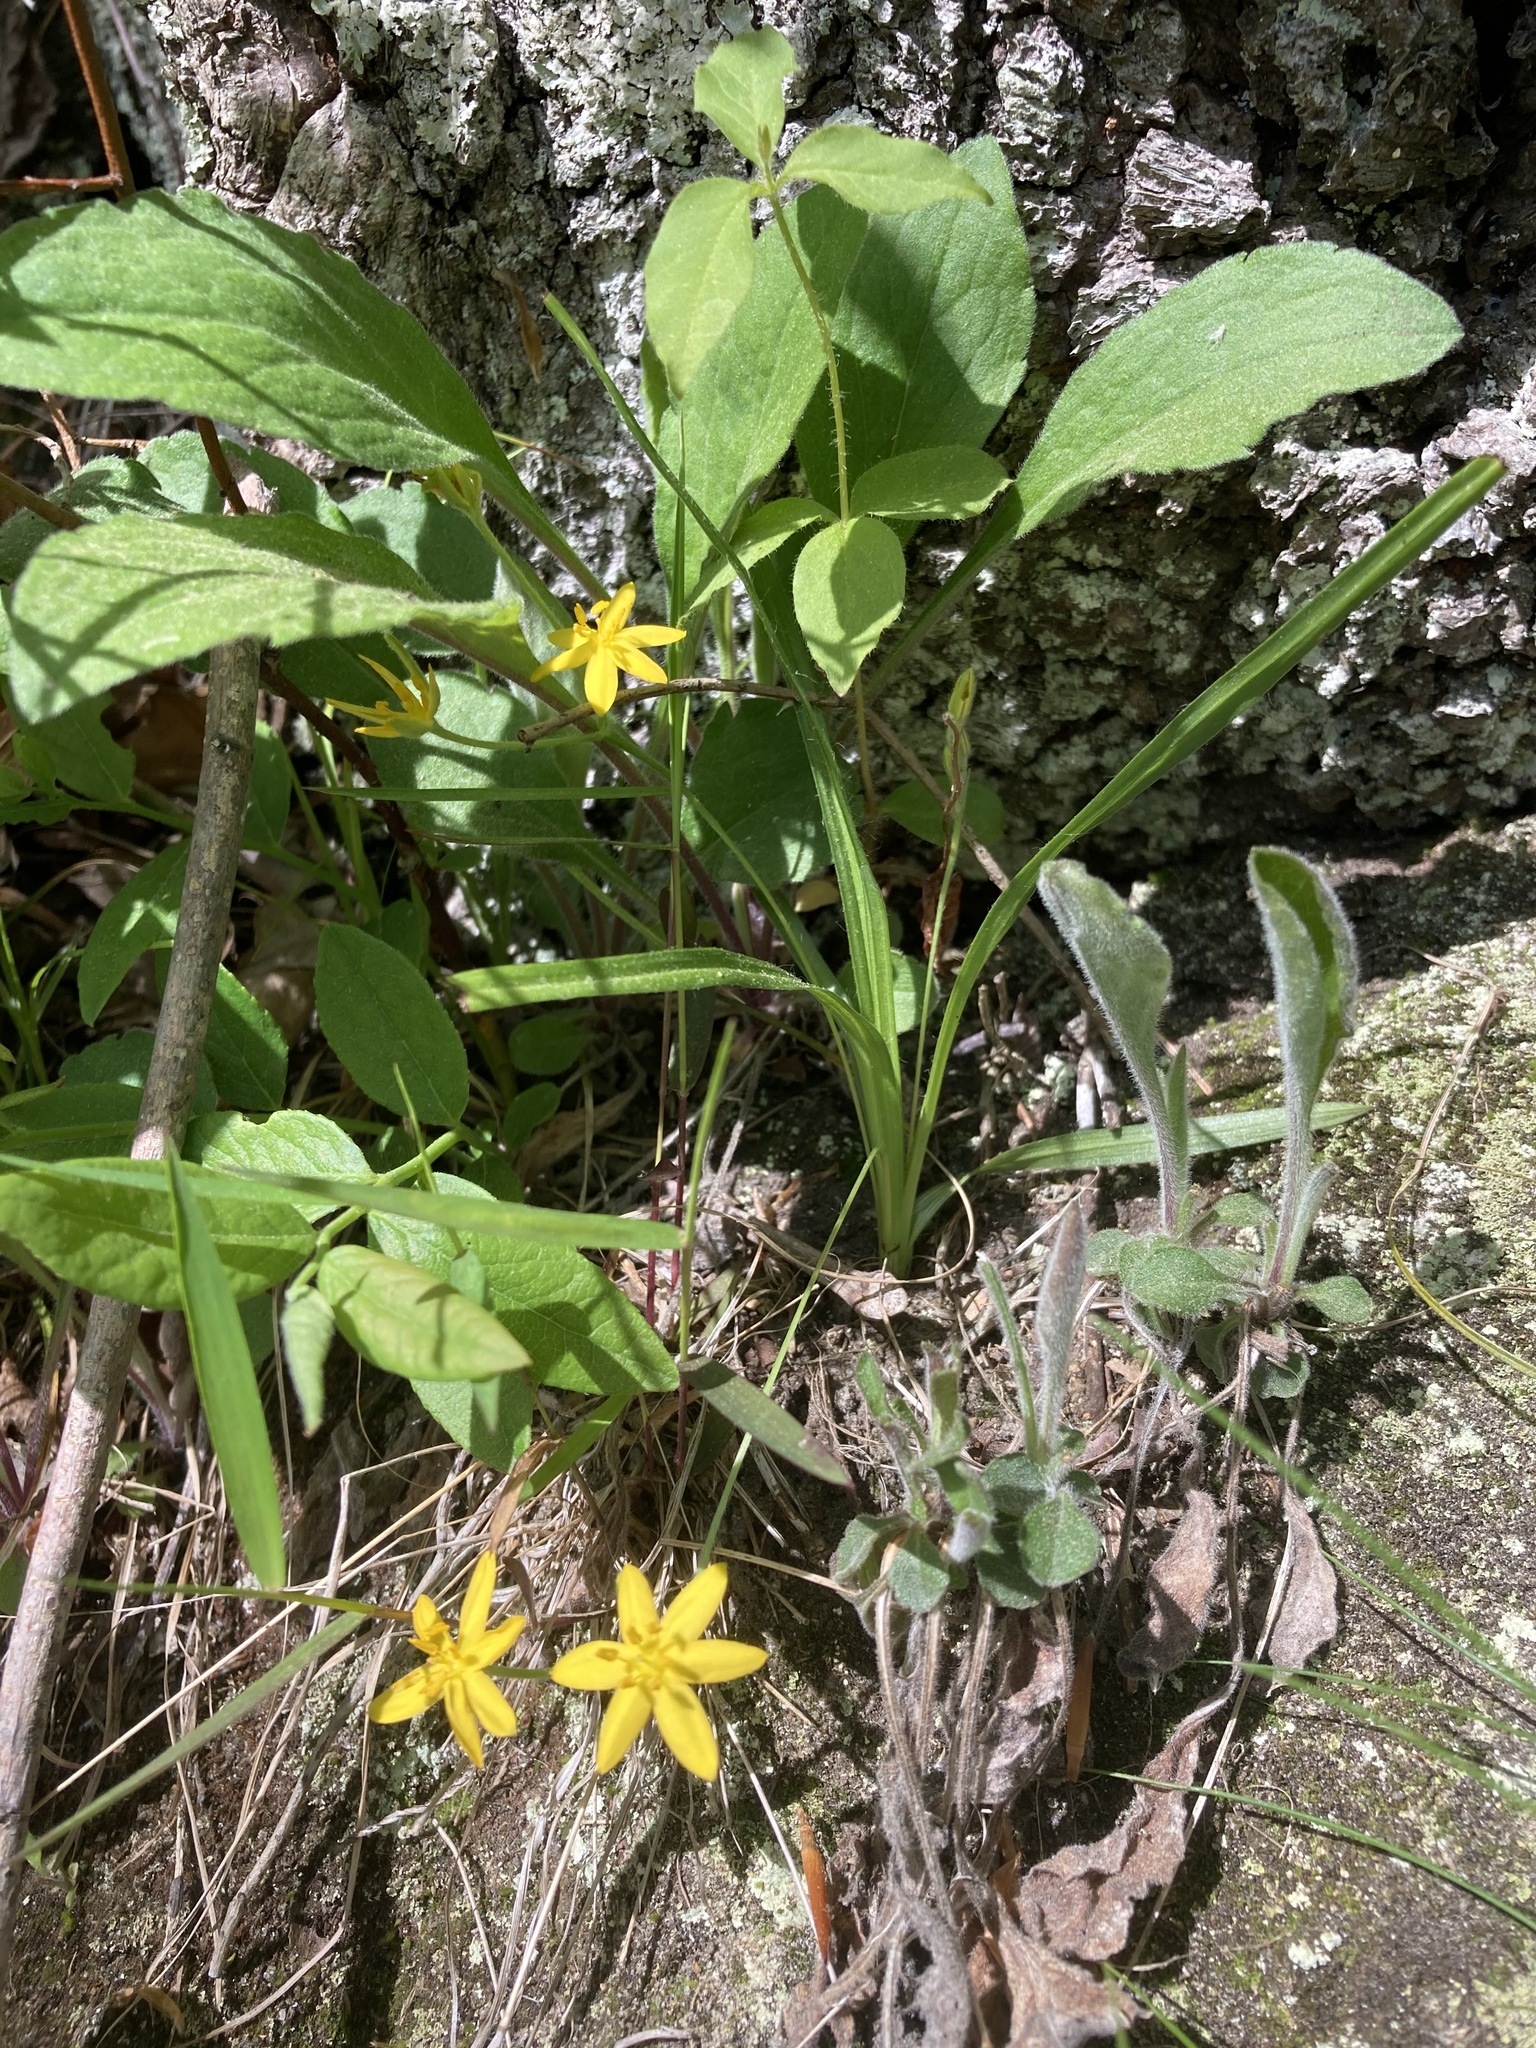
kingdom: Plantae
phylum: Tracheophyta
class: Liliopsida
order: Asparagales
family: Hypoxidaceae
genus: Hypoxis
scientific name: Hypoxis hirsuta
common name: Common goldstar
